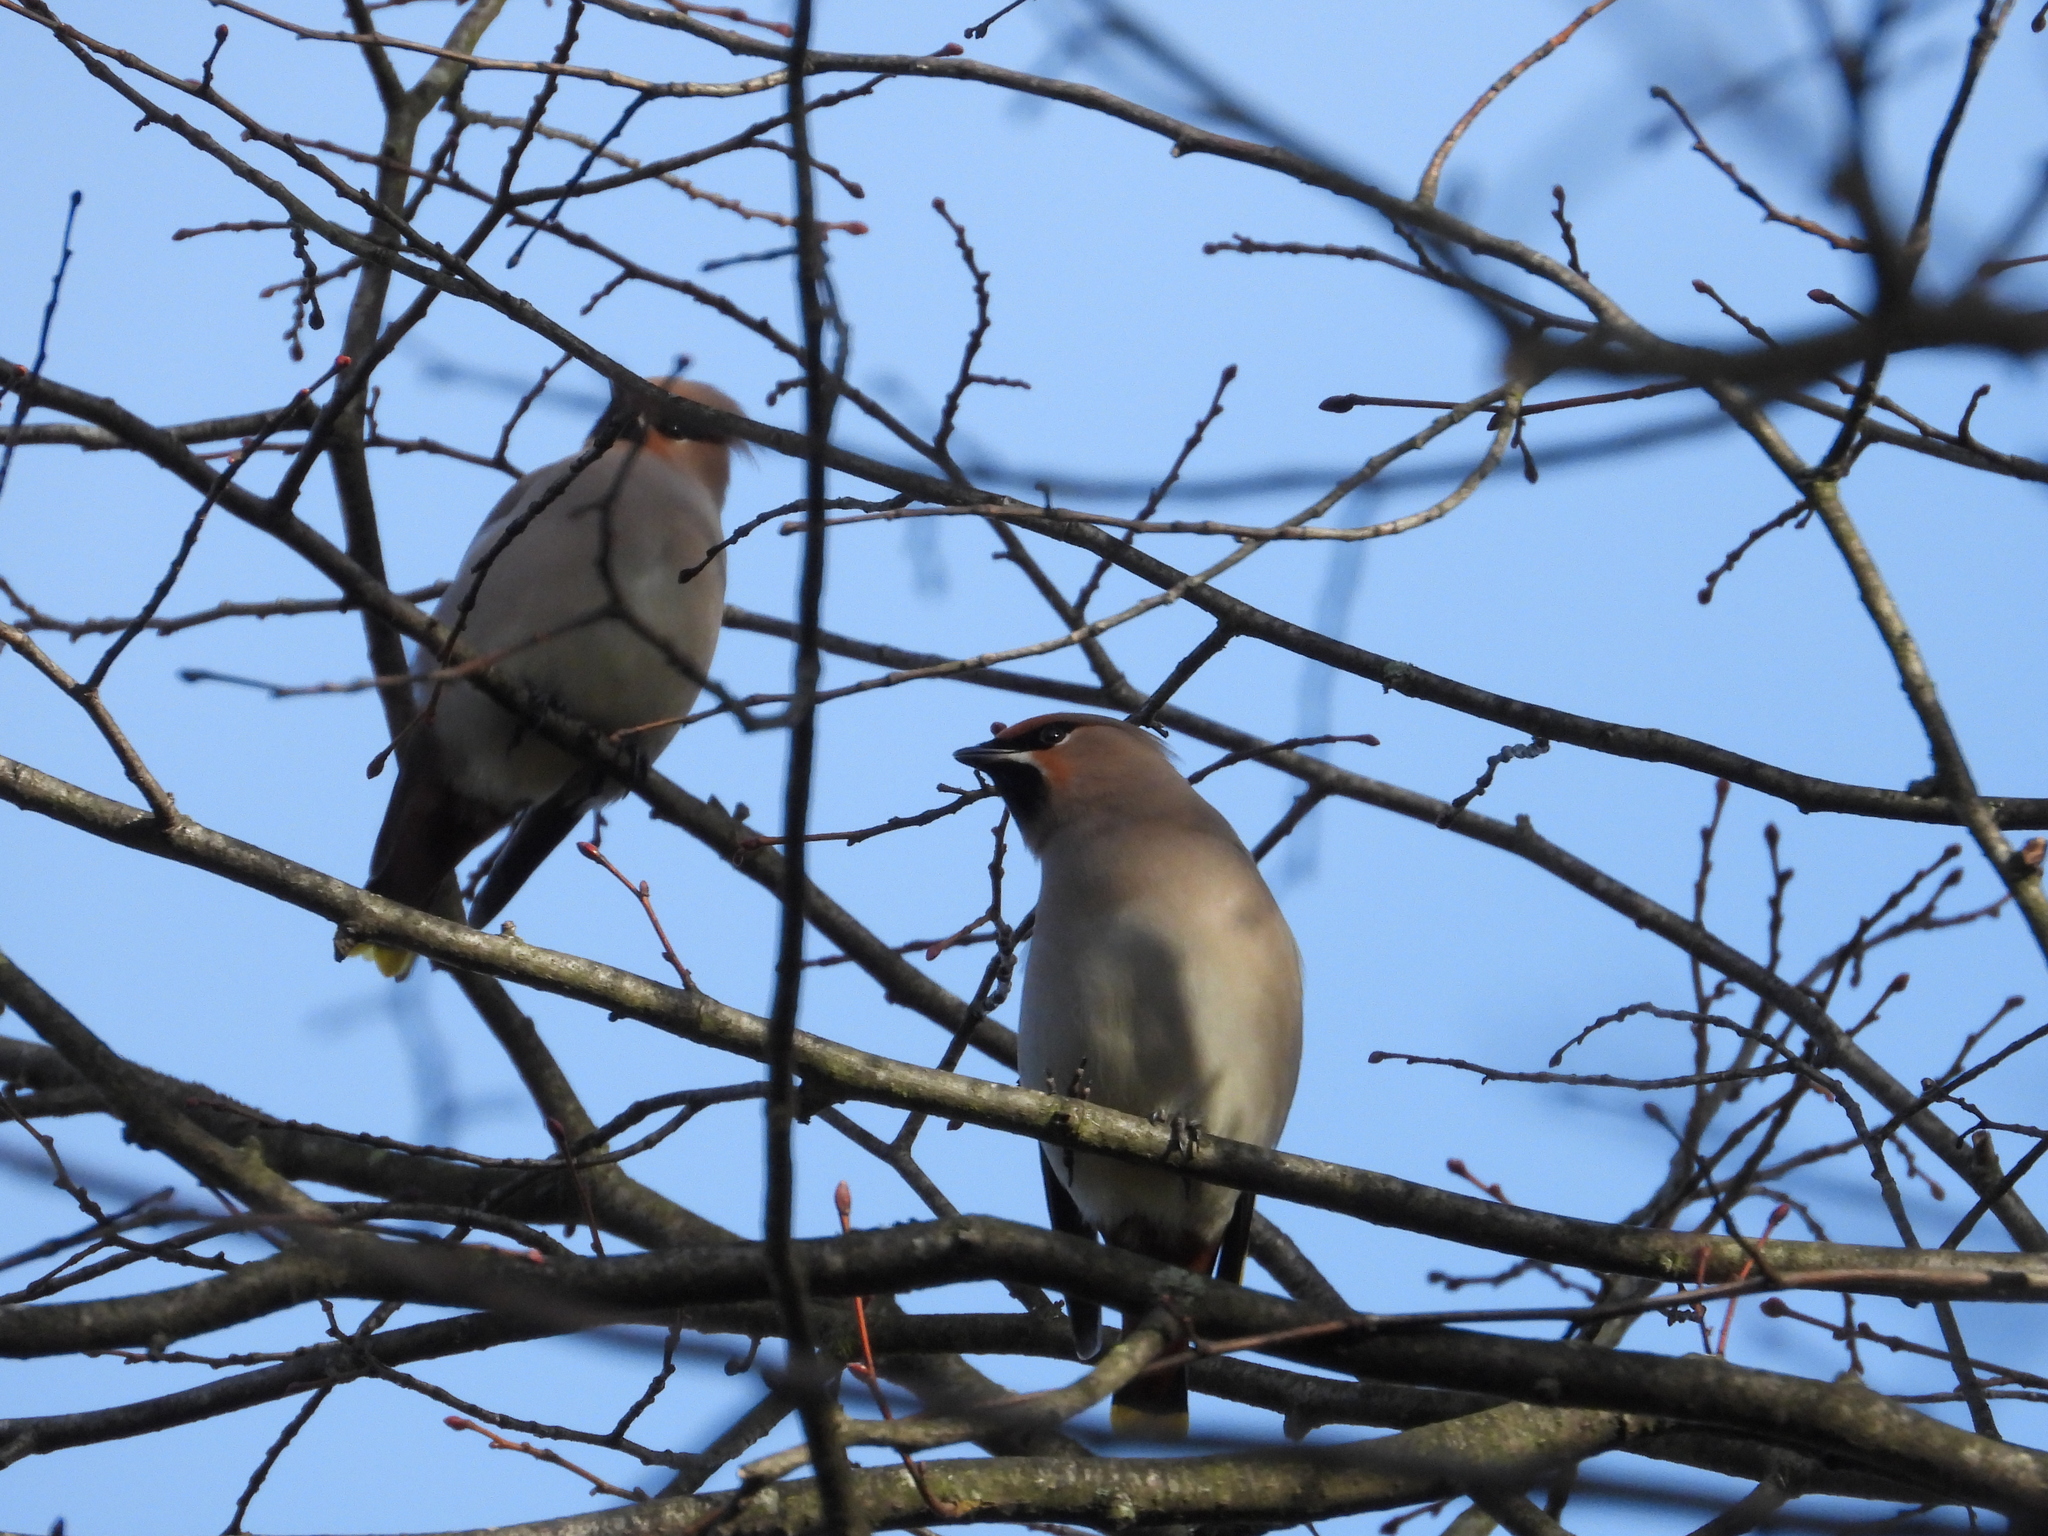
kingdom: Animalia
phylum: Chordata
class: Aves
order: Passeriformes
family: Bombycillidae
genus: Bombycilla
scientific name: Bombycilla garrulus
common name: Bohemian waxwing
